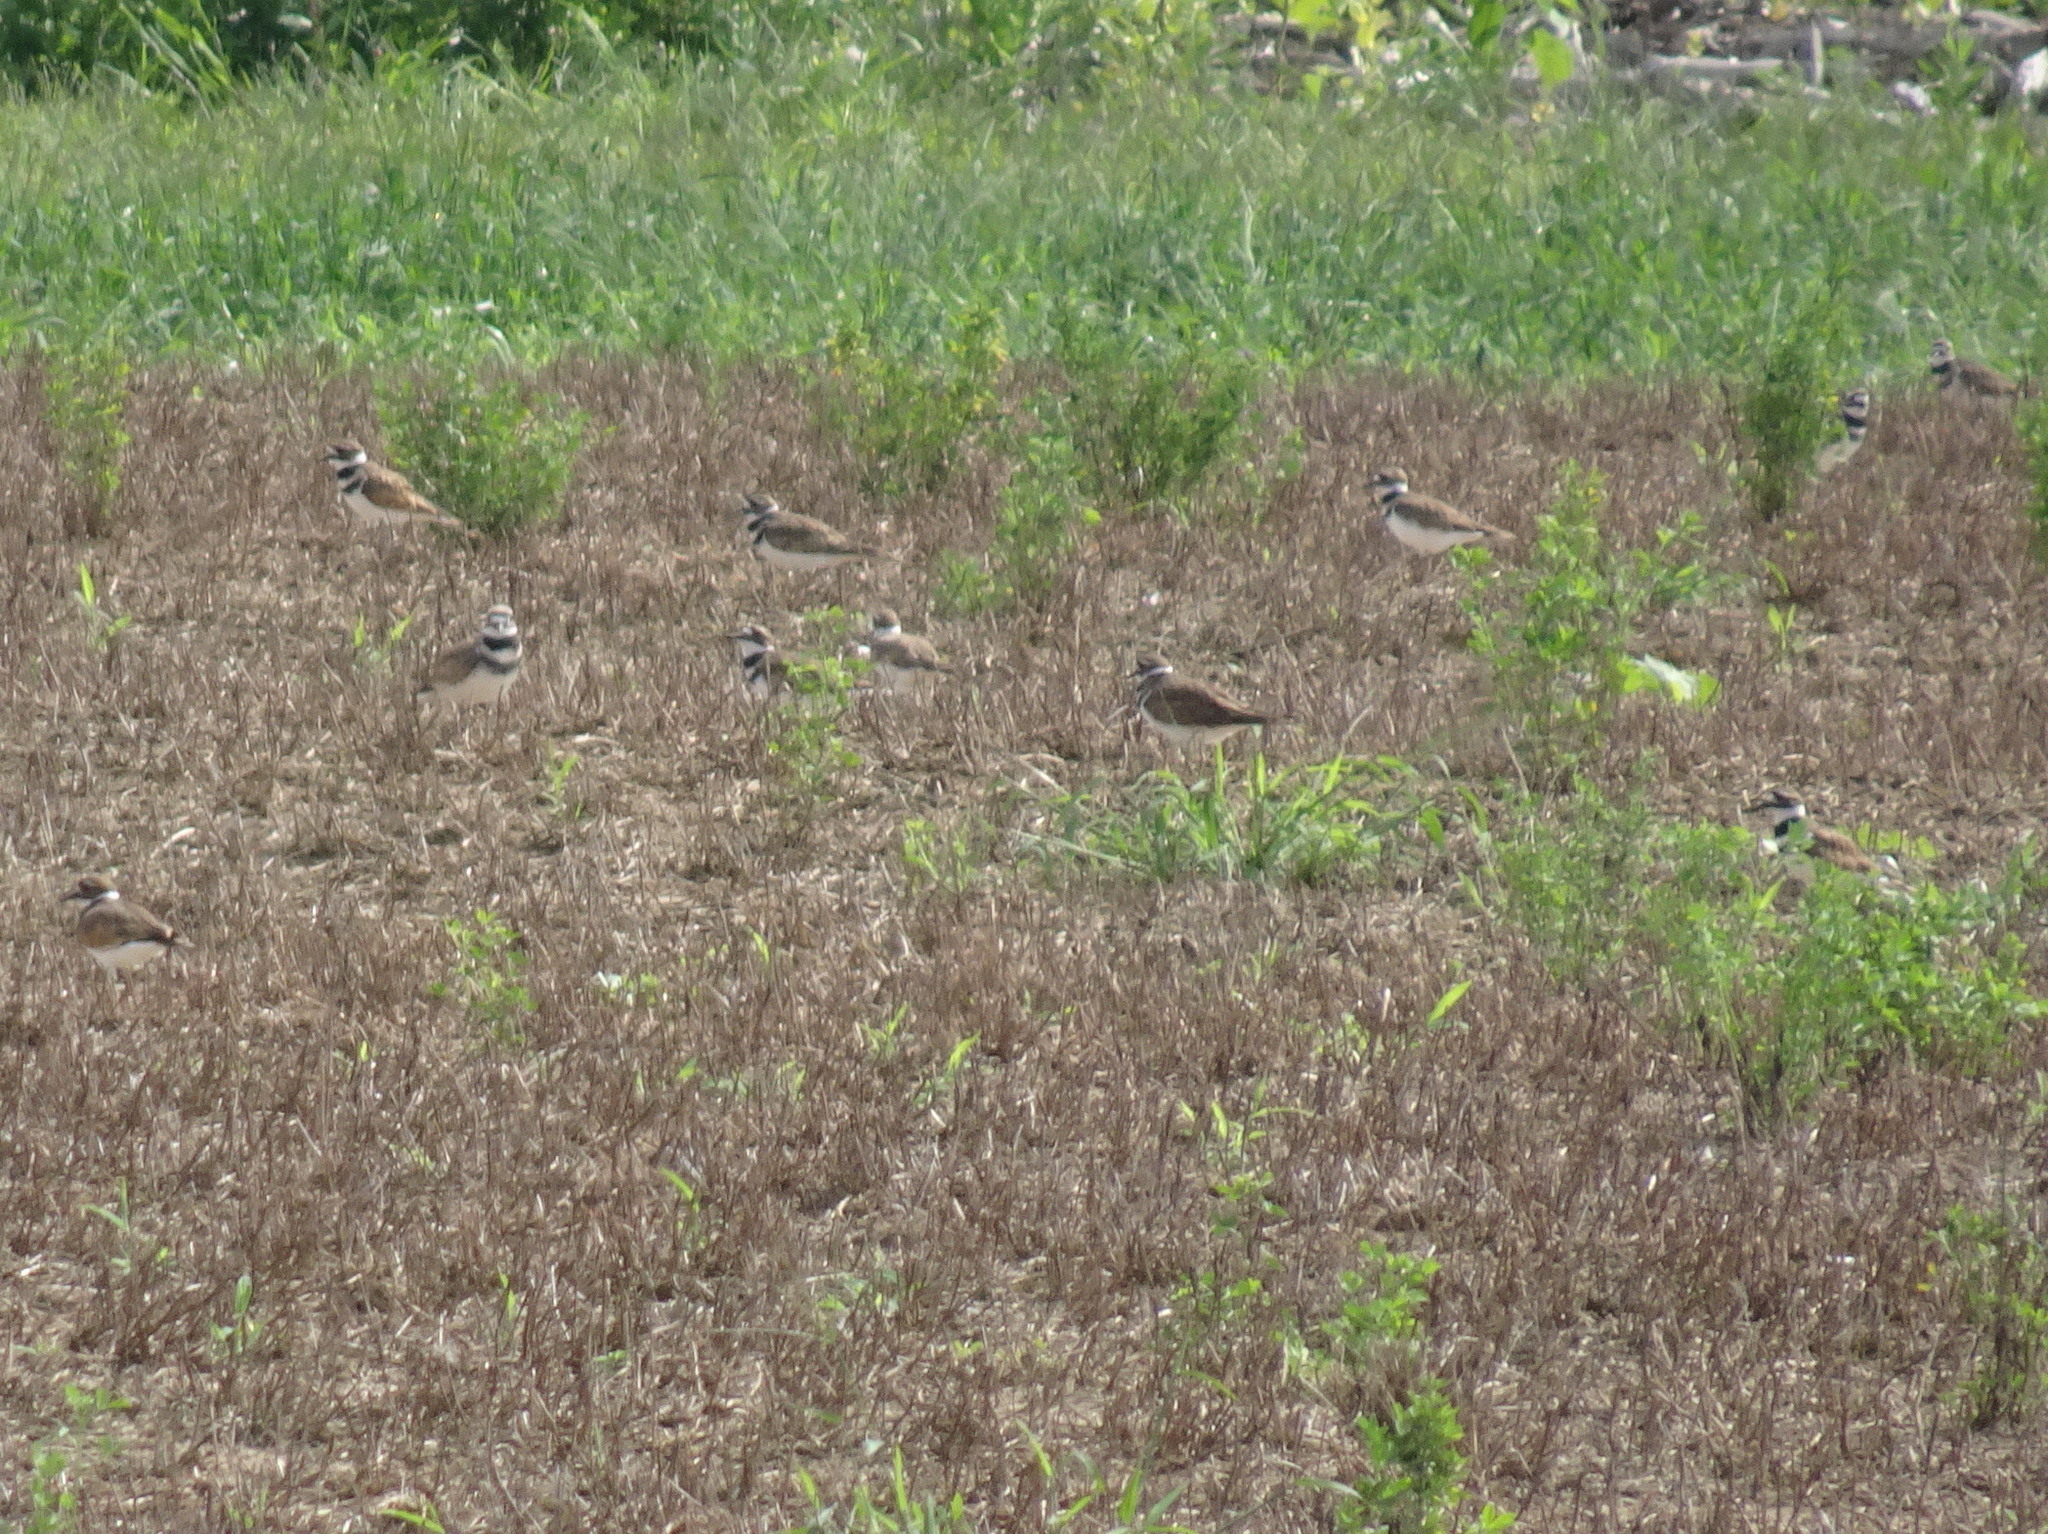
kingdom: Animalia
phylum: Chordata
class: Aves
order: Charadriiformes
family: Charadriidae
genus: Charadrius
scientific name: Charadrius vociferus
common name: Killdeer
